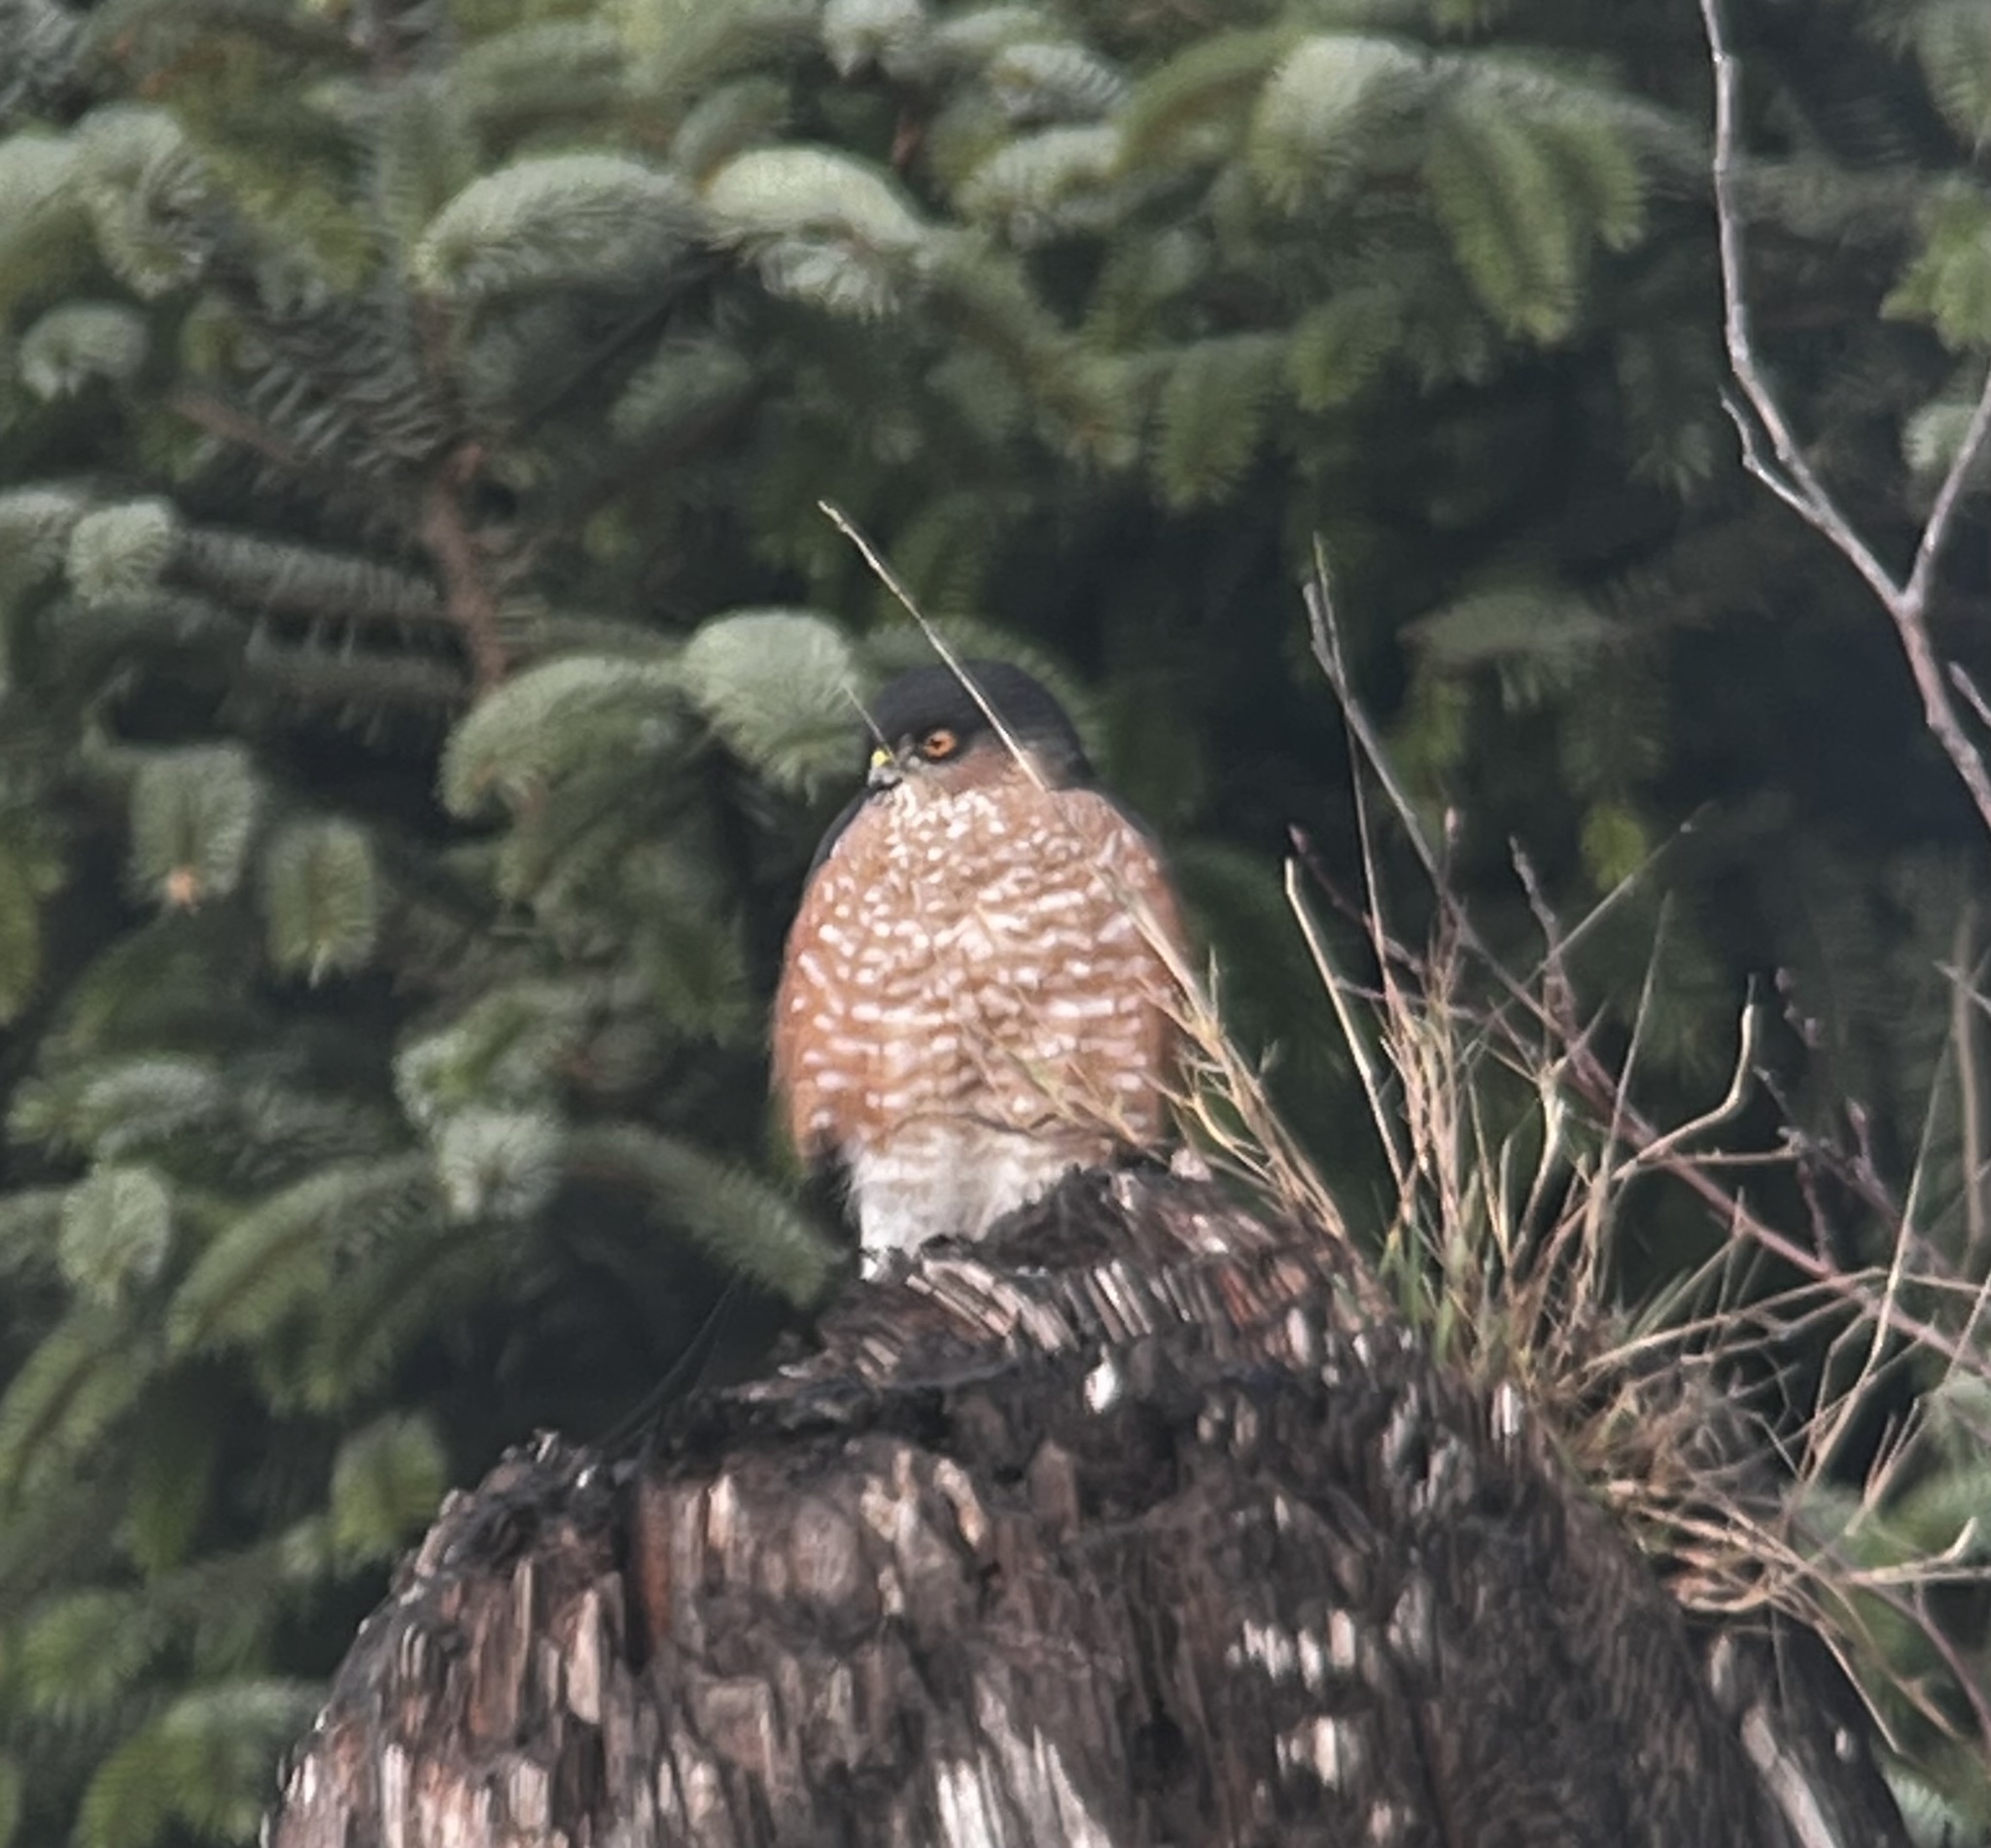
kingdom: Animalia
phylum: Chordata
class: Aves
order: Accipitriformes
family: Accipitridae
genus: Accipiter
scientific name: Accipiter striatus
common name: Sharp-shinned hawk
